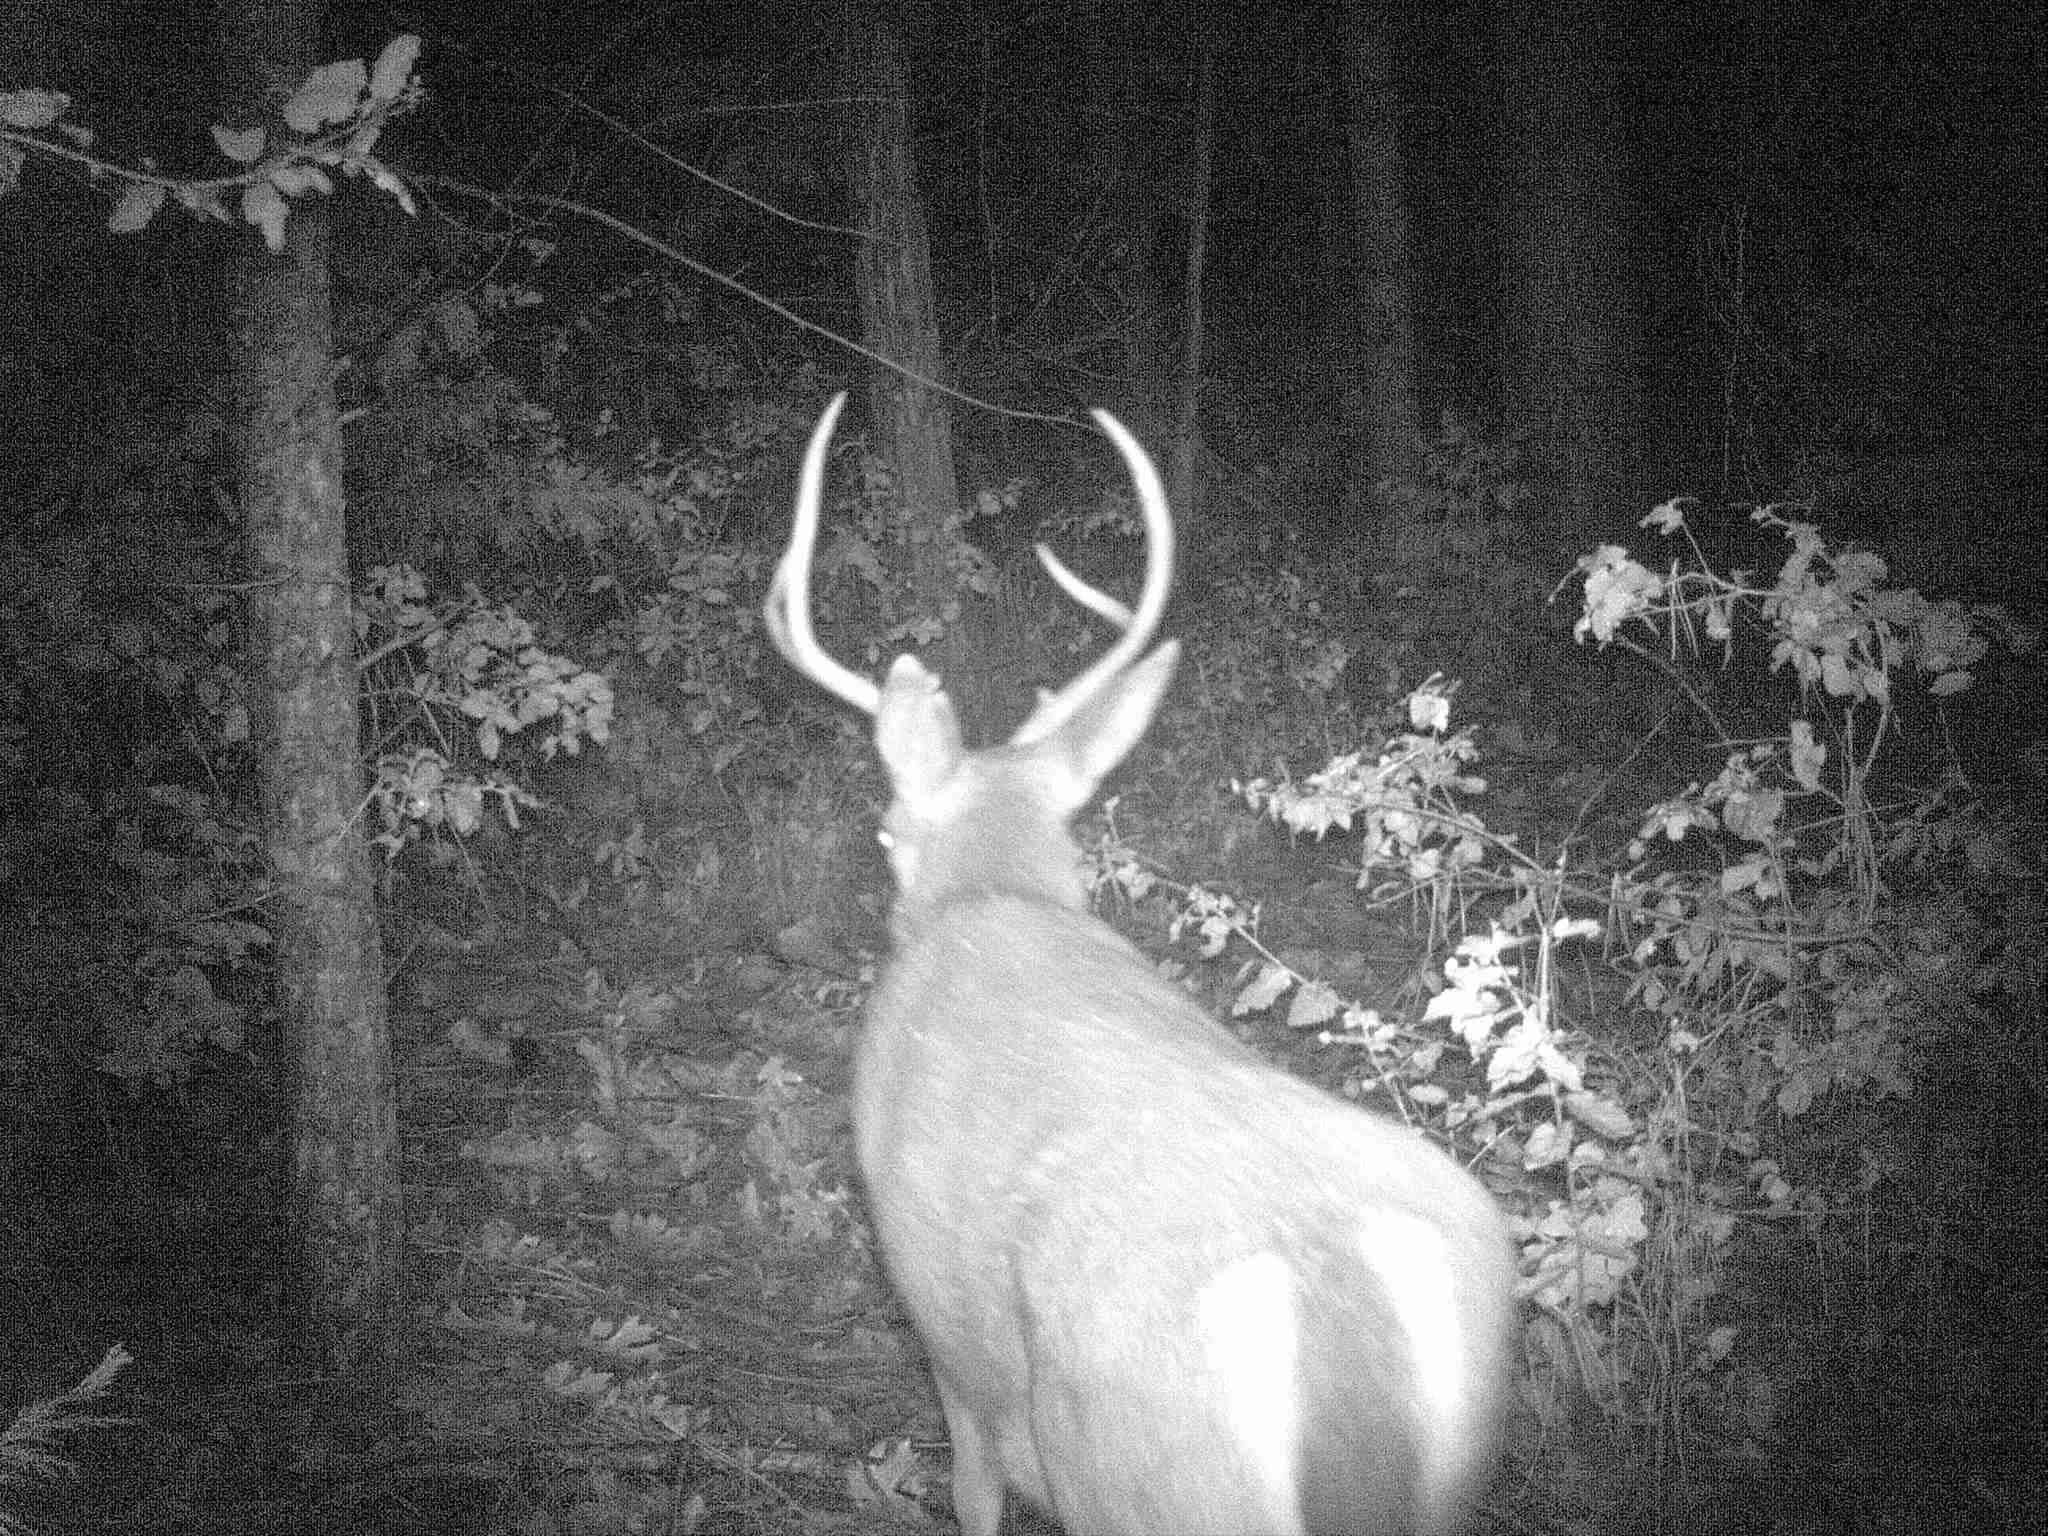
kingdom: Animalia
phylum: Chordata
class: Mammalia
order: Artiodactyla
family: Cervidae
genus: Odocoileus
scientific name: Odocoileus hemionus
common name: Mule deer
